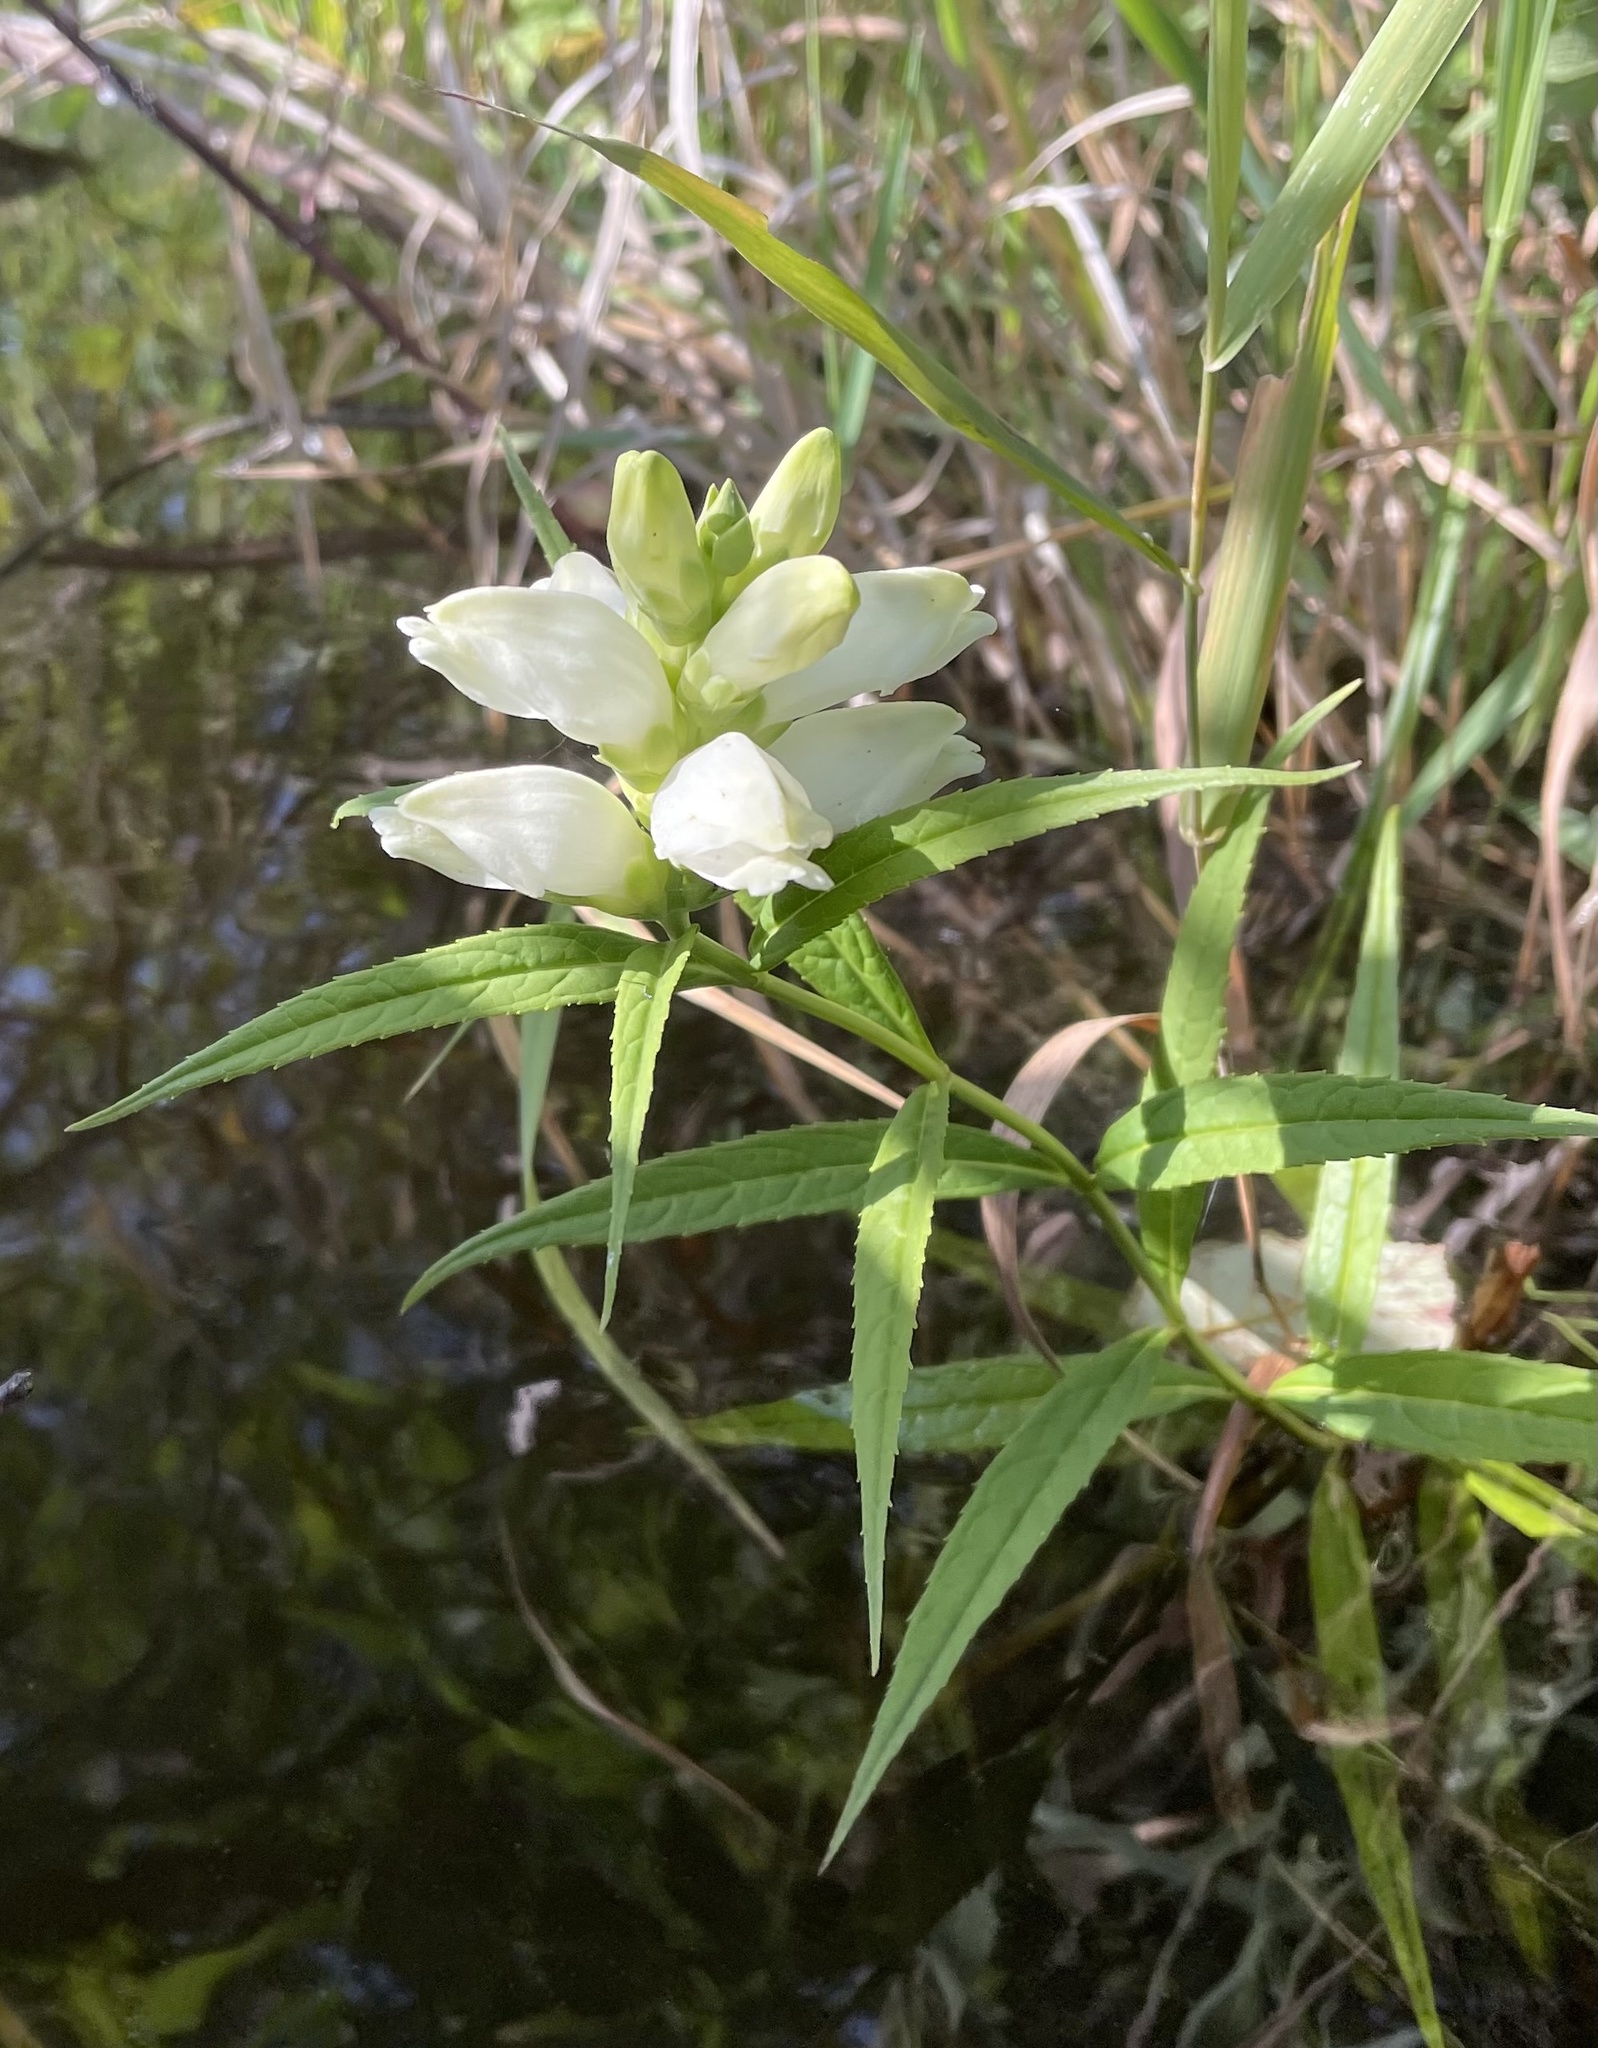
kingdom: Plantae
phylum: Tracheophyta
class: Magnoliopsida
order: Lamiales
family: Plantaginaceae
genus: Chelone
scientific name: Chelone glabra
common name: Snakehead
